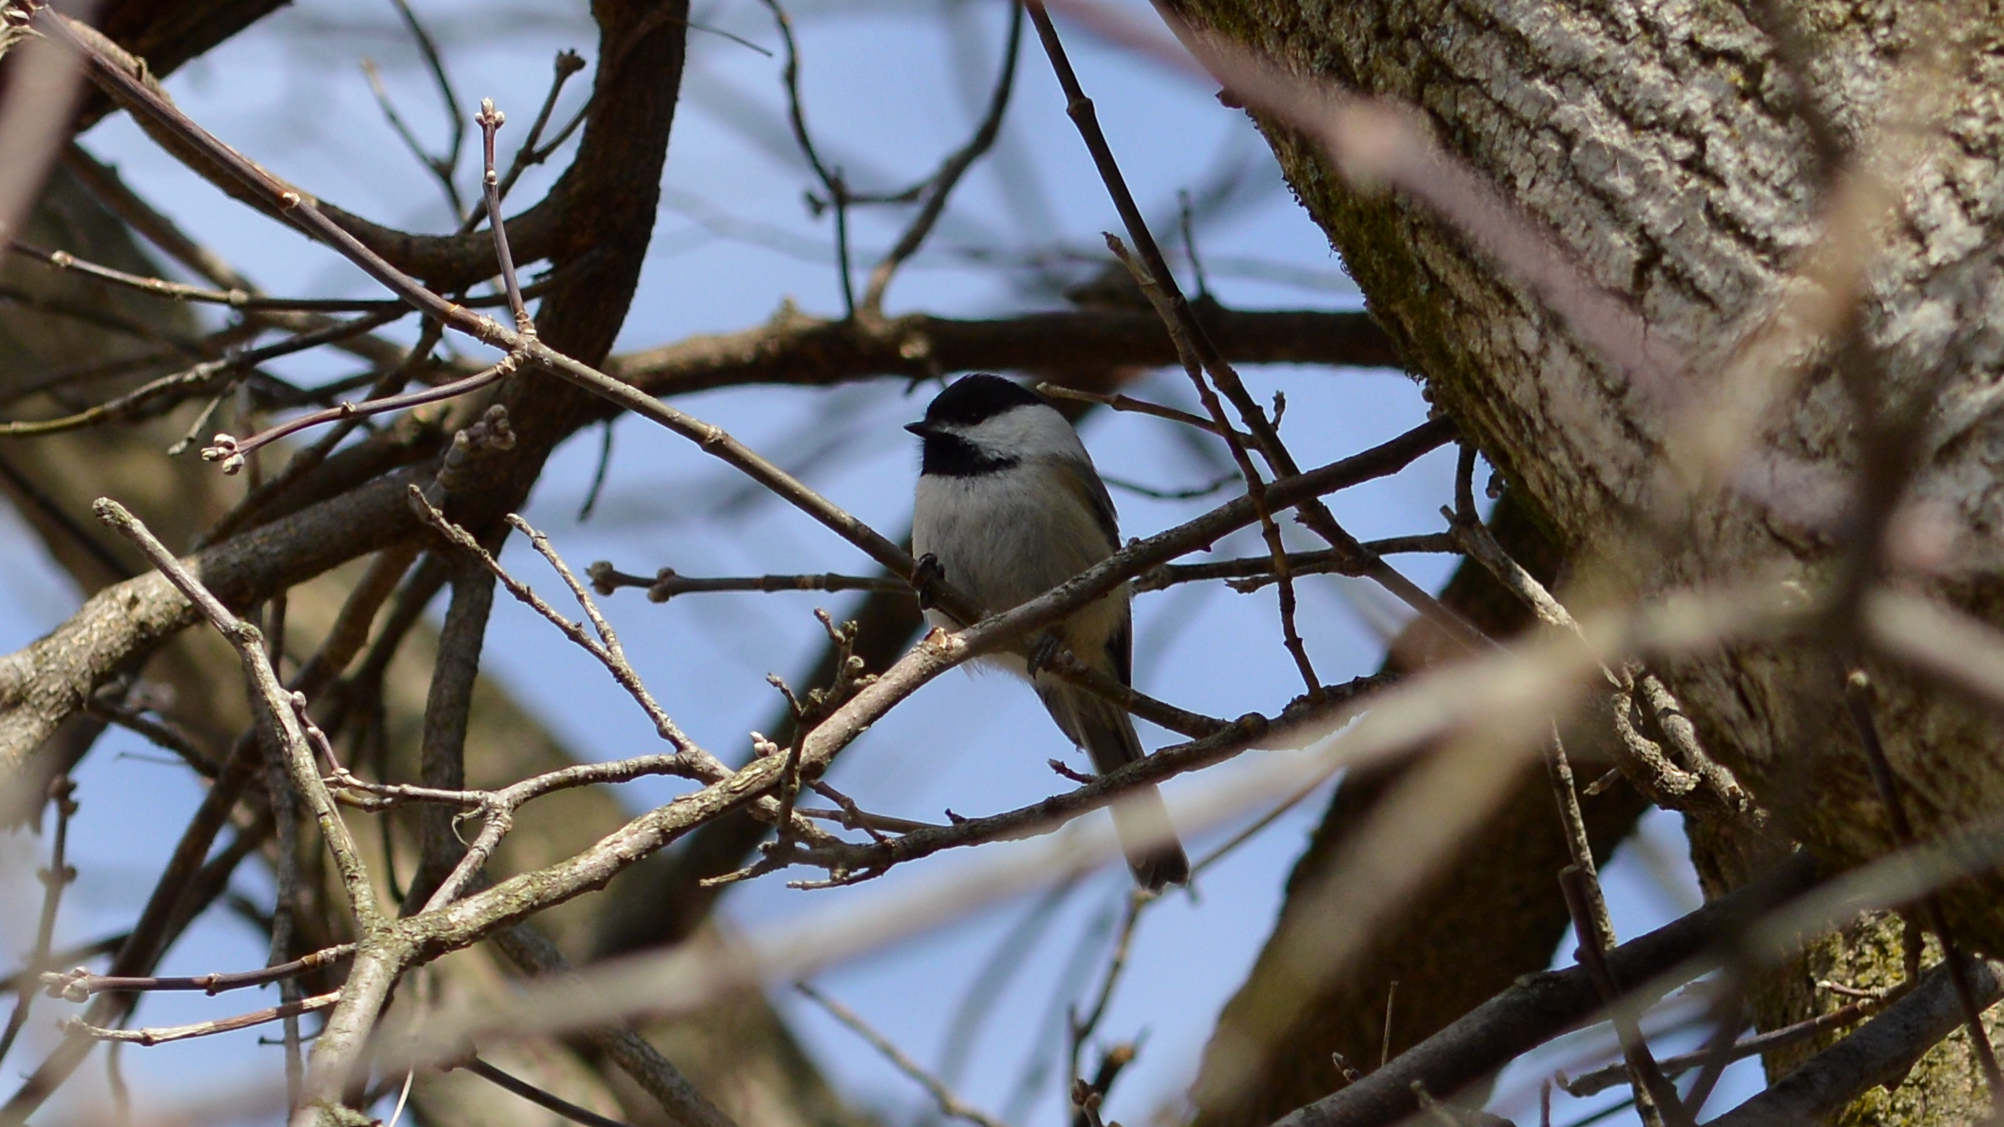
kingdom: Animalia
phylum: Chordata
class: Aves
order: Passeriformes
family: Paridae
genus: Poecile
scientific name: Poecile atricapillus
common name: Black-capped chickadee
